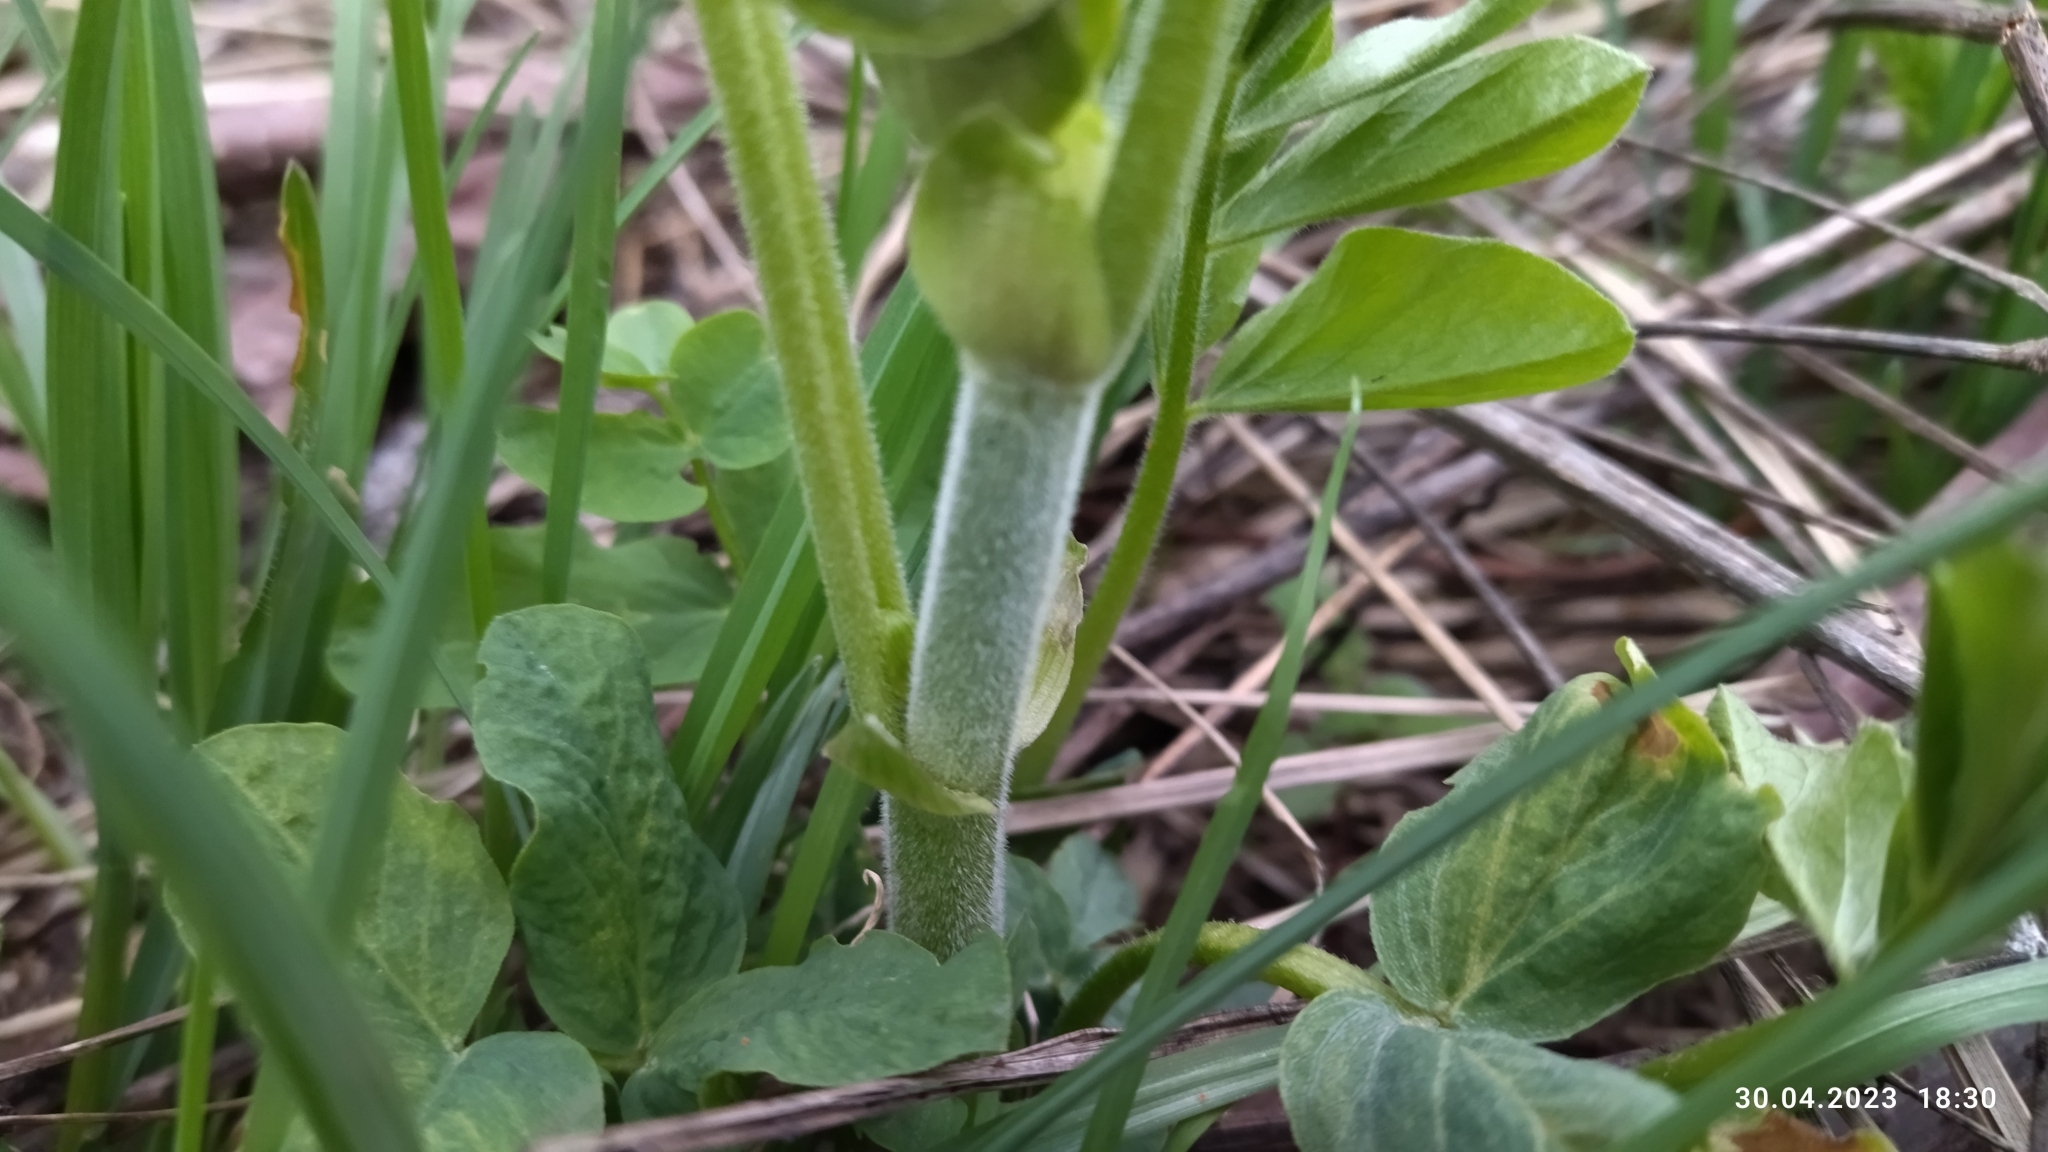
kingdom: Plantae
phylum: Tracheophyta
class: Magnoliopsida
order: Fabales
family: Fabaceae
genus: Galega
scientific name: Galega orientalis
